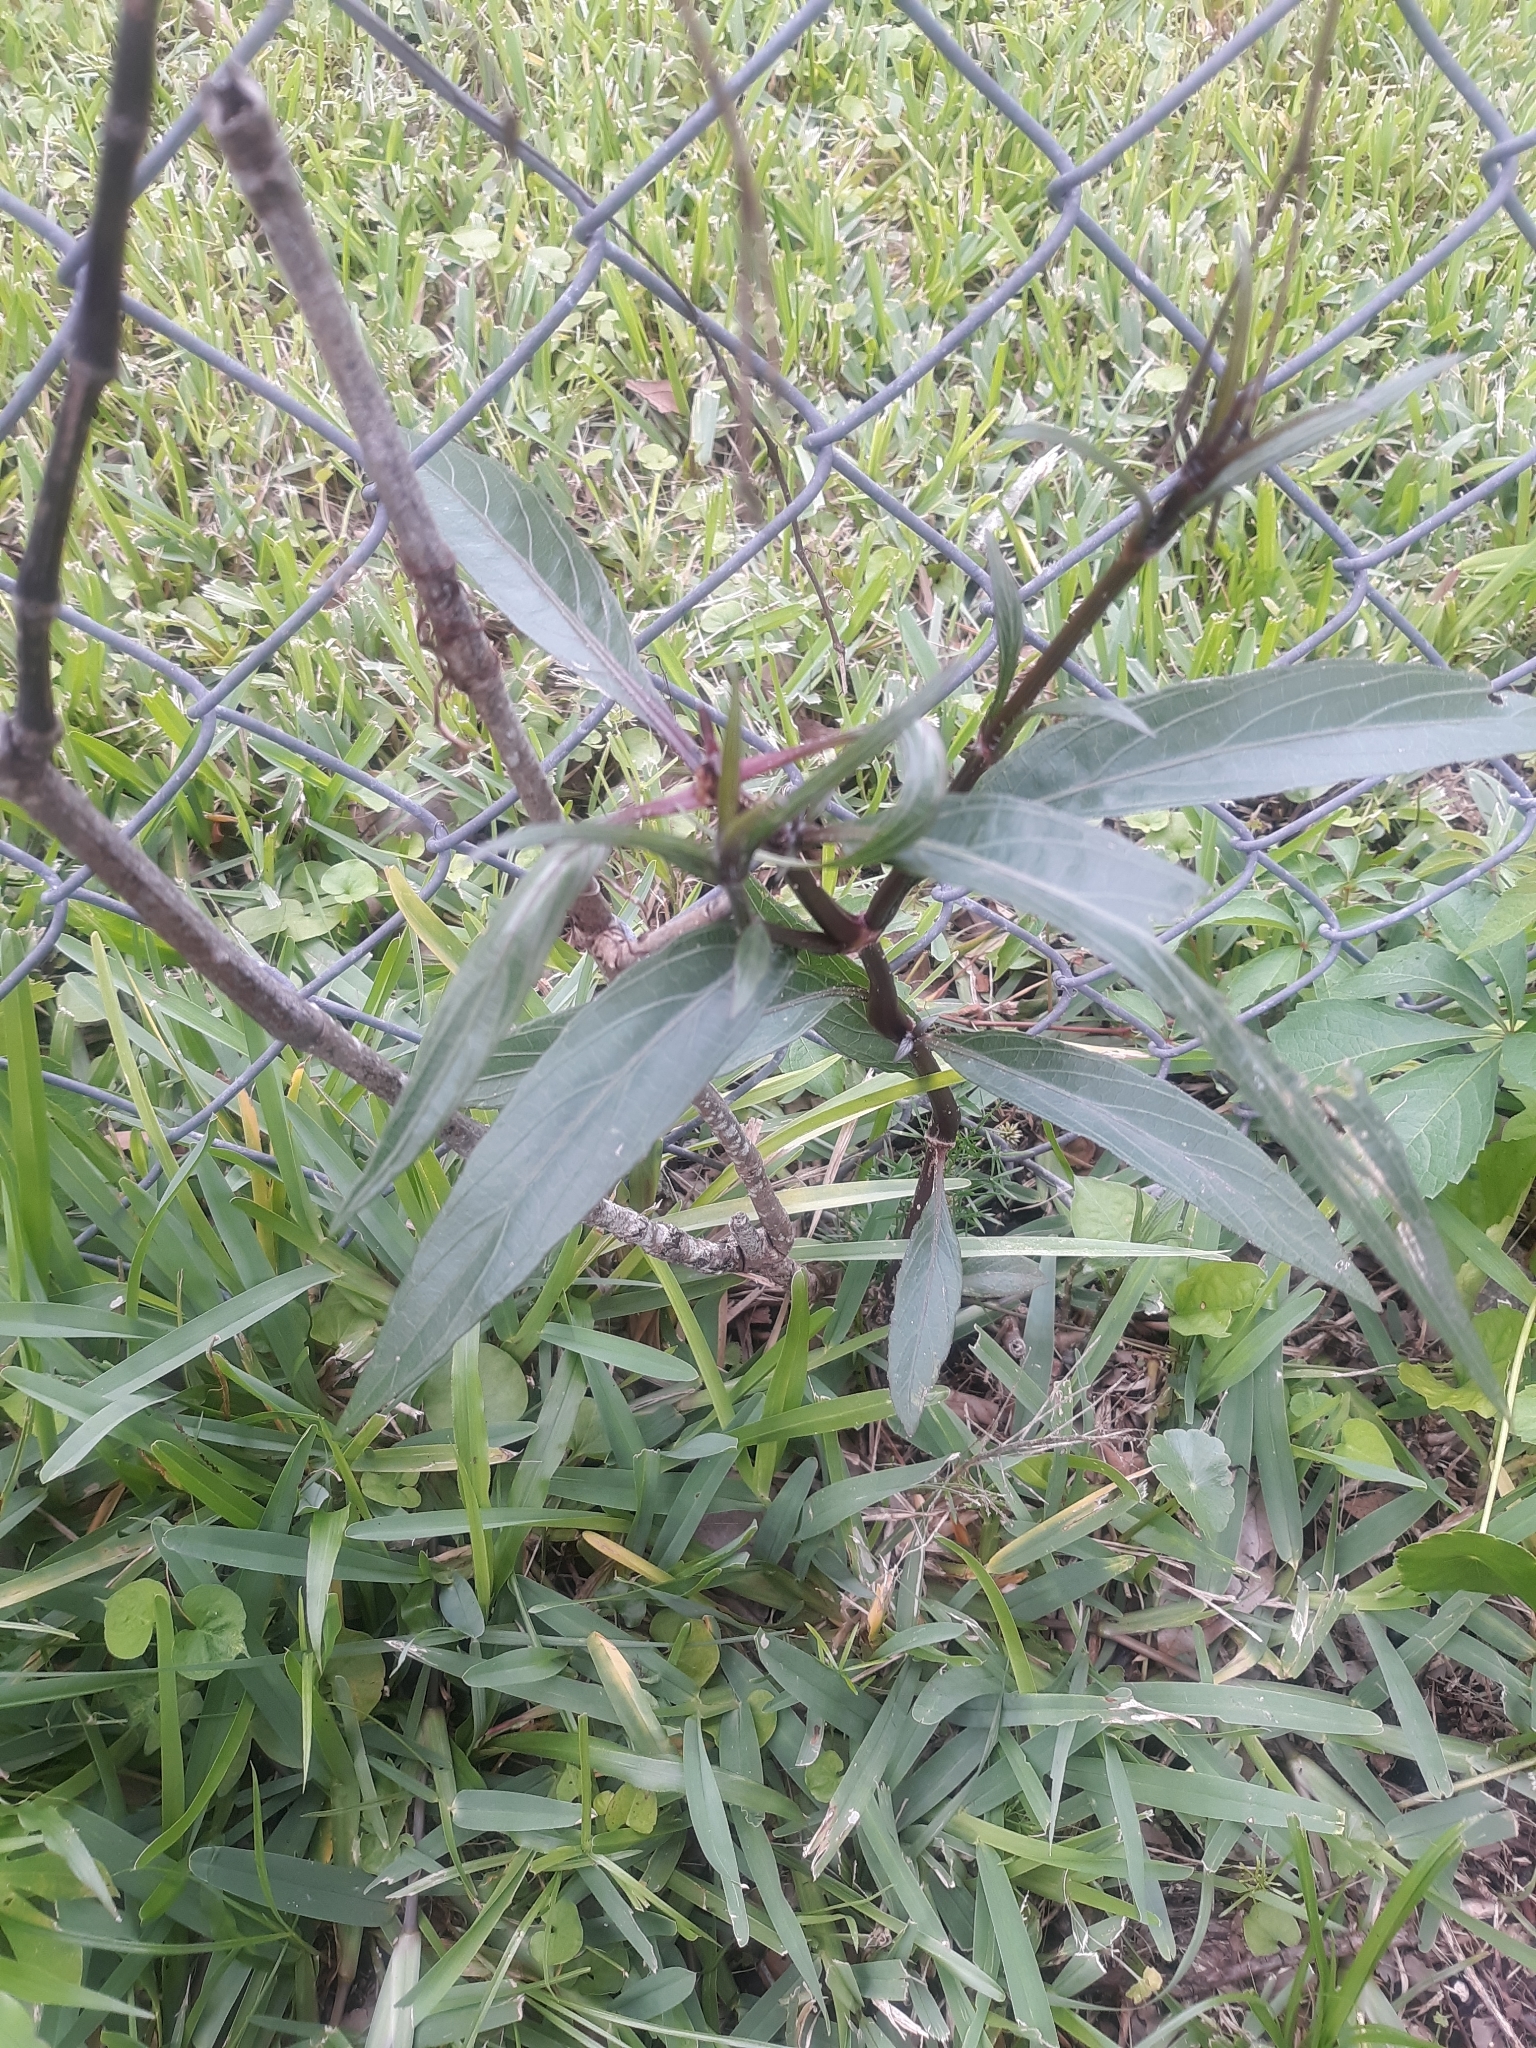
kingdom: Plantae
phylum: Tracheophyta
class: Magnoliopsida
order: Lamiales
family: Acanthaceae
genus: Ruellia
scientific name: Ruellia simplex
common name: Softseed wild petunia
